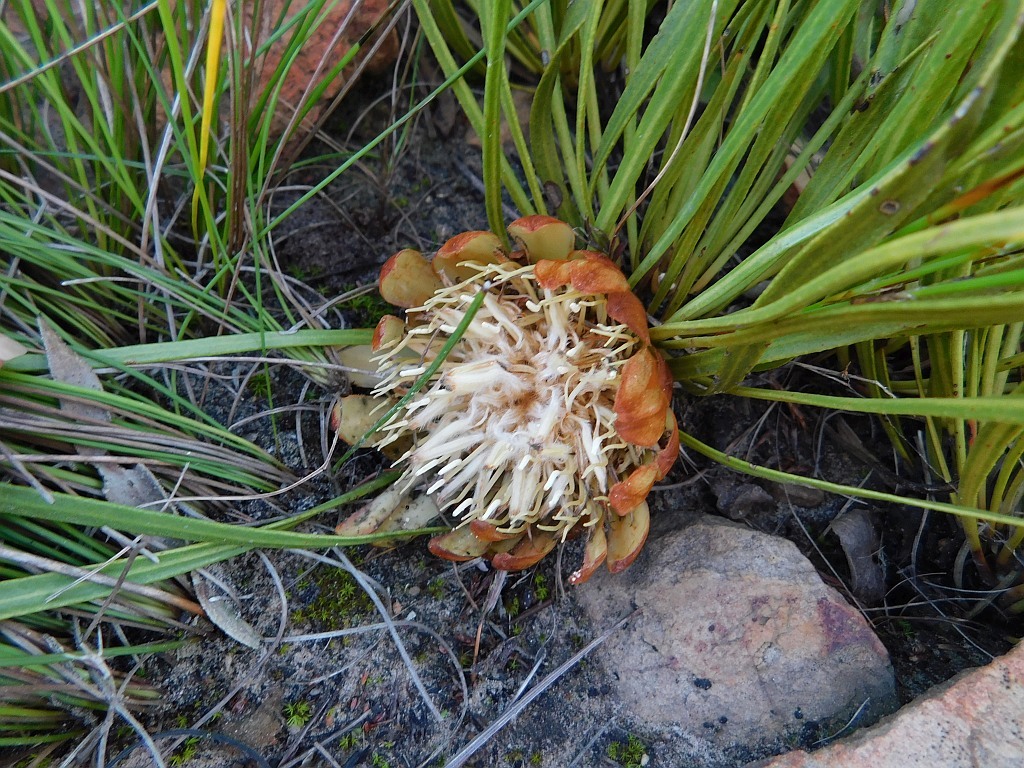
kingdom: Plantae
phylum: Tracheophyta
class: Magnoliopsida
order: Proteales
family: Proteaceae
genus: Protea
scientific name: Protea scabra
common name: Sandpaper-leaf sugarbush
